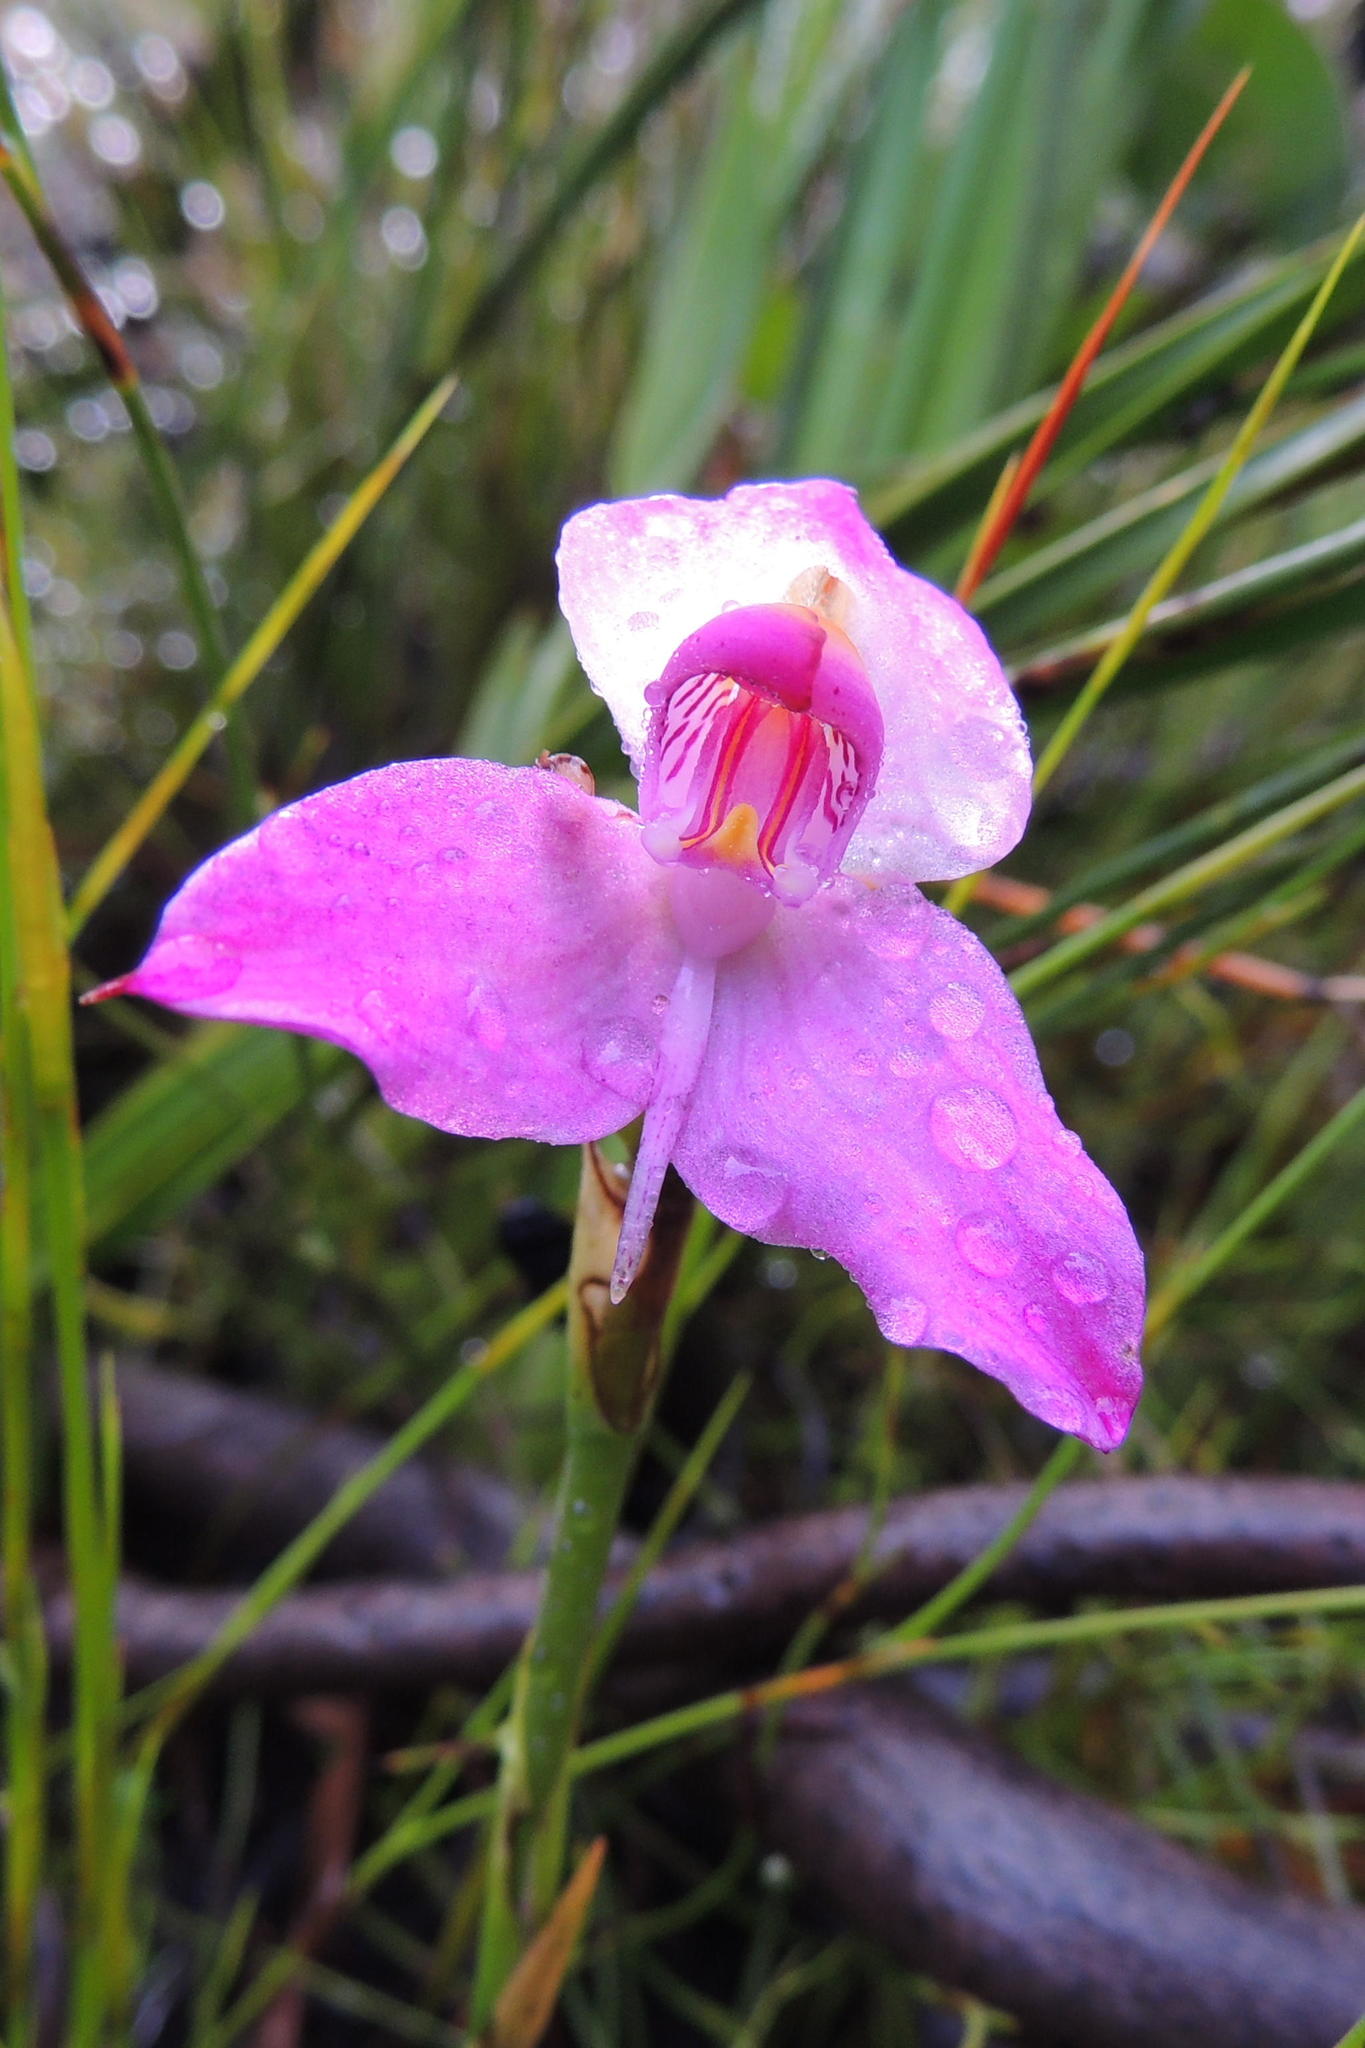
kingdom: Plantae
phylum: Tracheophyta
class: Liliopsida
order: Asparagales
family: Orchidaceae
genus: Disa
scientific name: Disa racemosa
